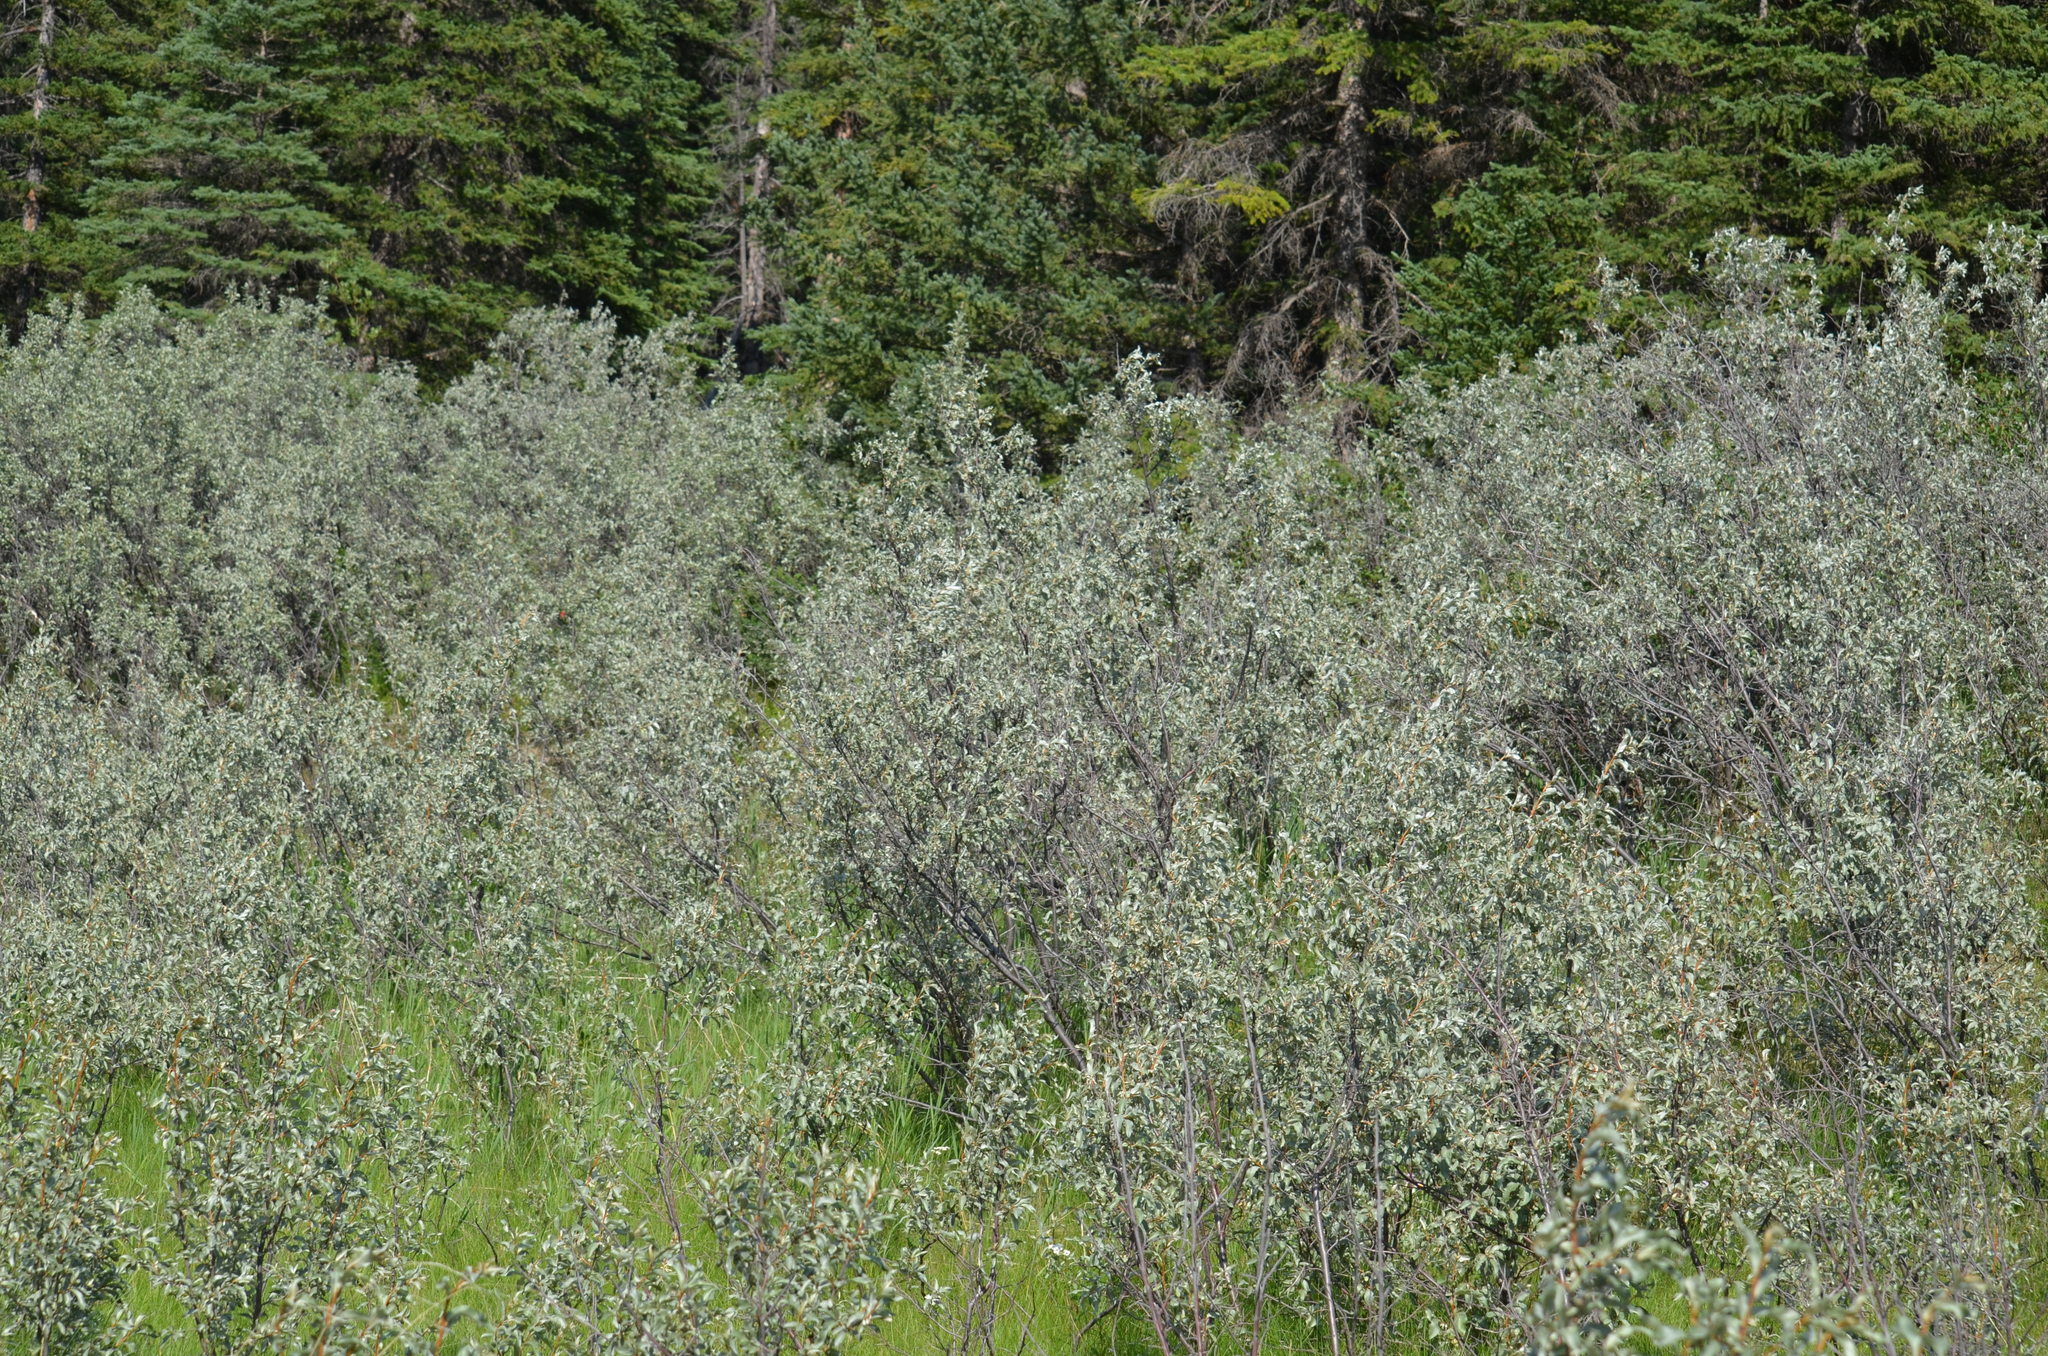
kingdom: Plantae
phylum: Tracheophyta
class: Magnoliopsida
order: Rosales
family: Elaeagnaceae
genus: Elaeagnus
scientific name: Elaeagnus commutata
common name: Silverberry
